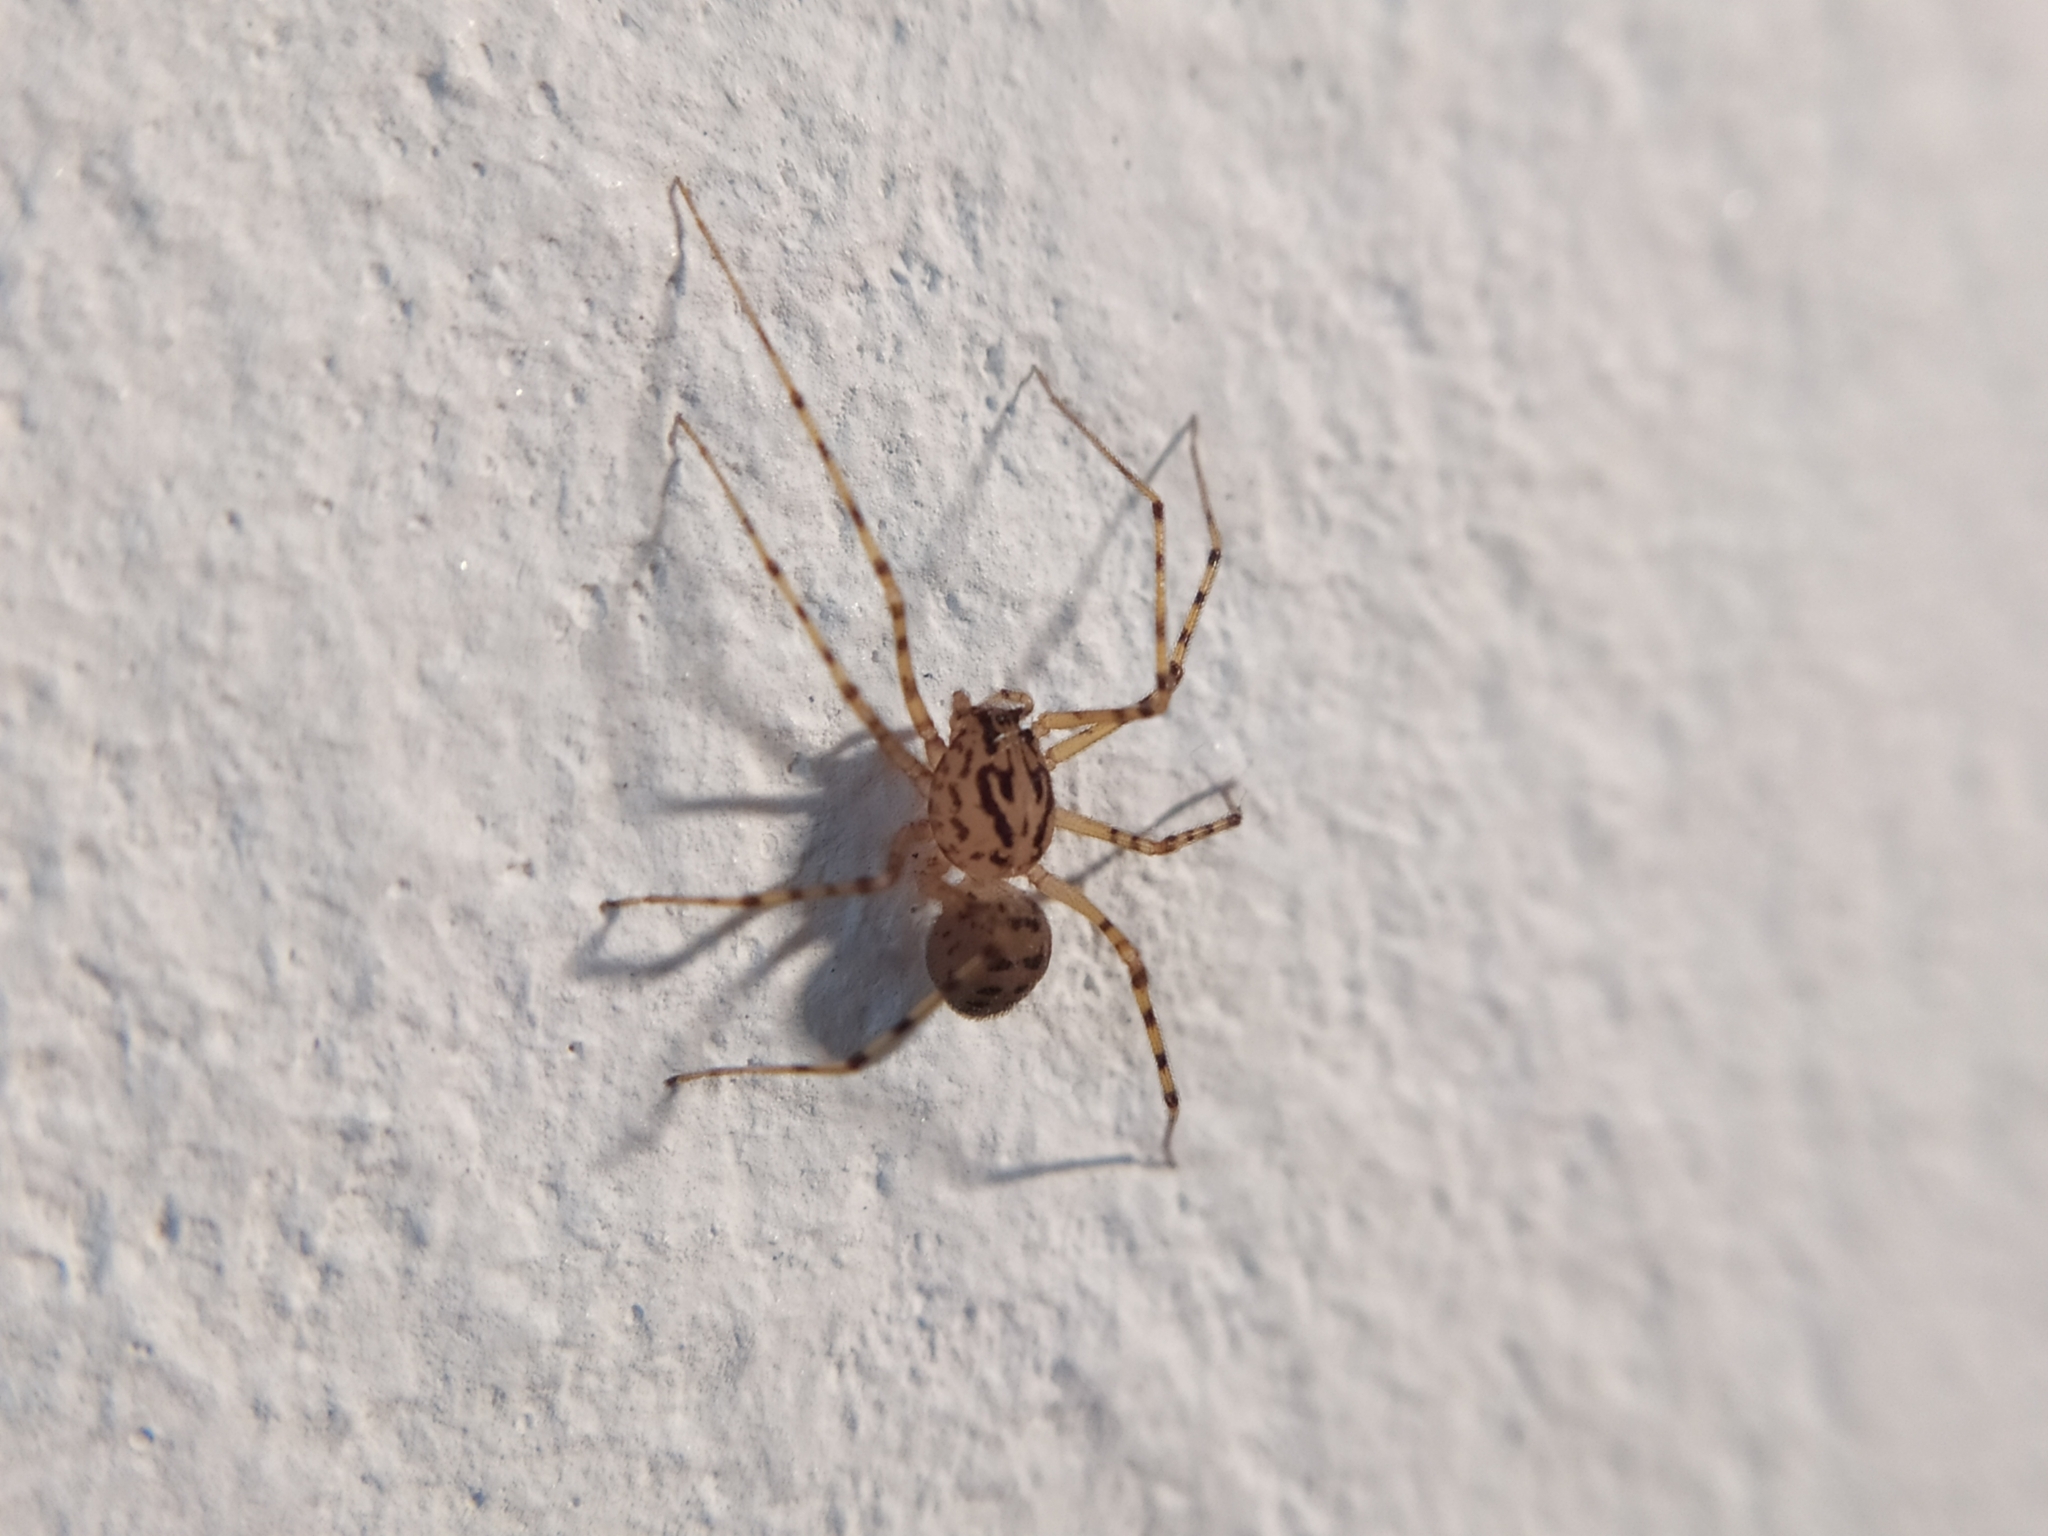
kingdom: Animalia
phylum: Arthropoda
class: Arachnida
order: Araneae
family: Scytodidae
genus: Scytodes
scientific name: Scytodes thoracica
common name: Spitting spider
